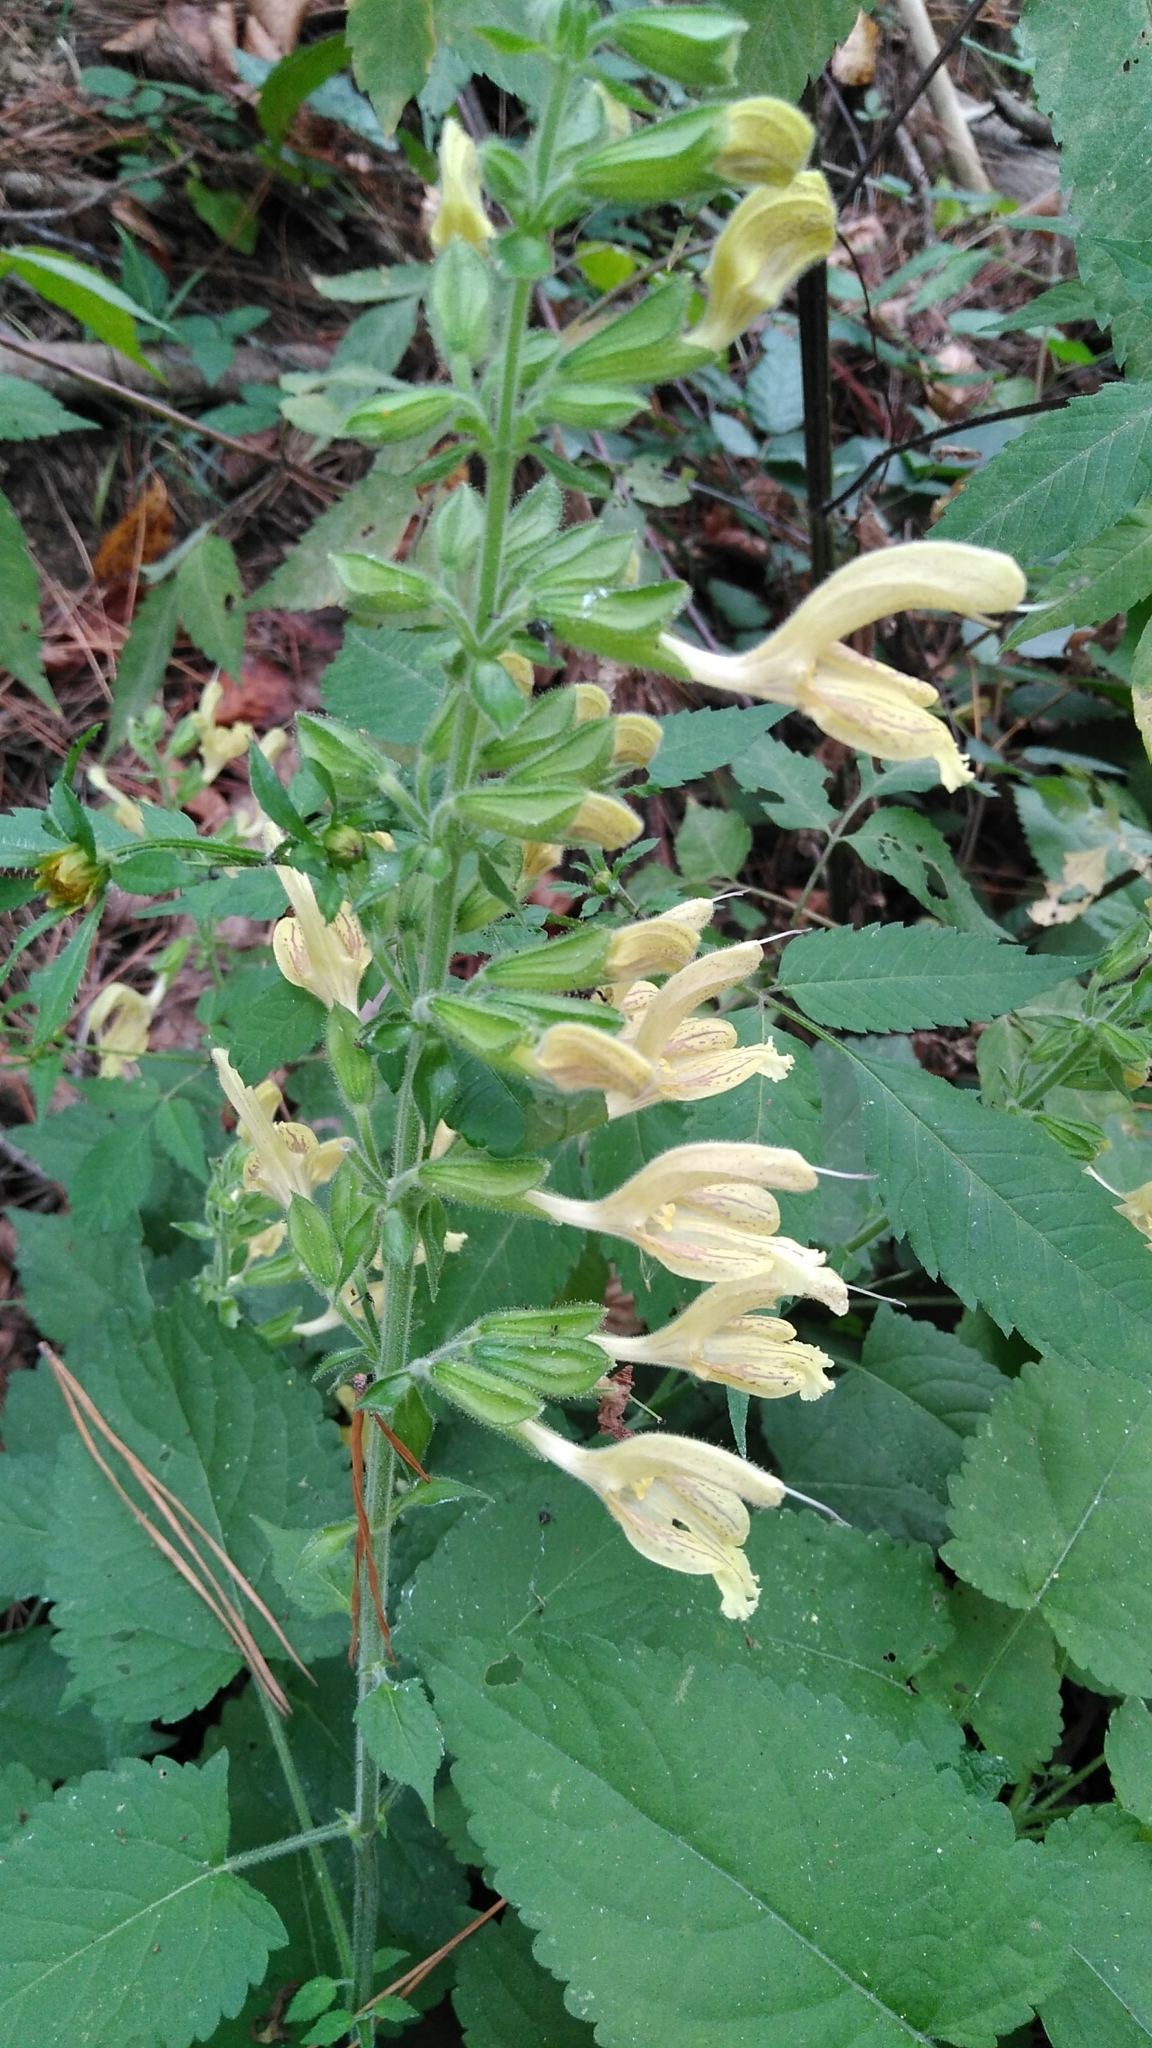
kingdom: Plantae
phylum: Tracheophyta
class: Magnoliopsida
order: Lamiales
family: Lamiaceae
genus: Salvia
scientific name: Salvia glutinosa
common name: Sticky clary
